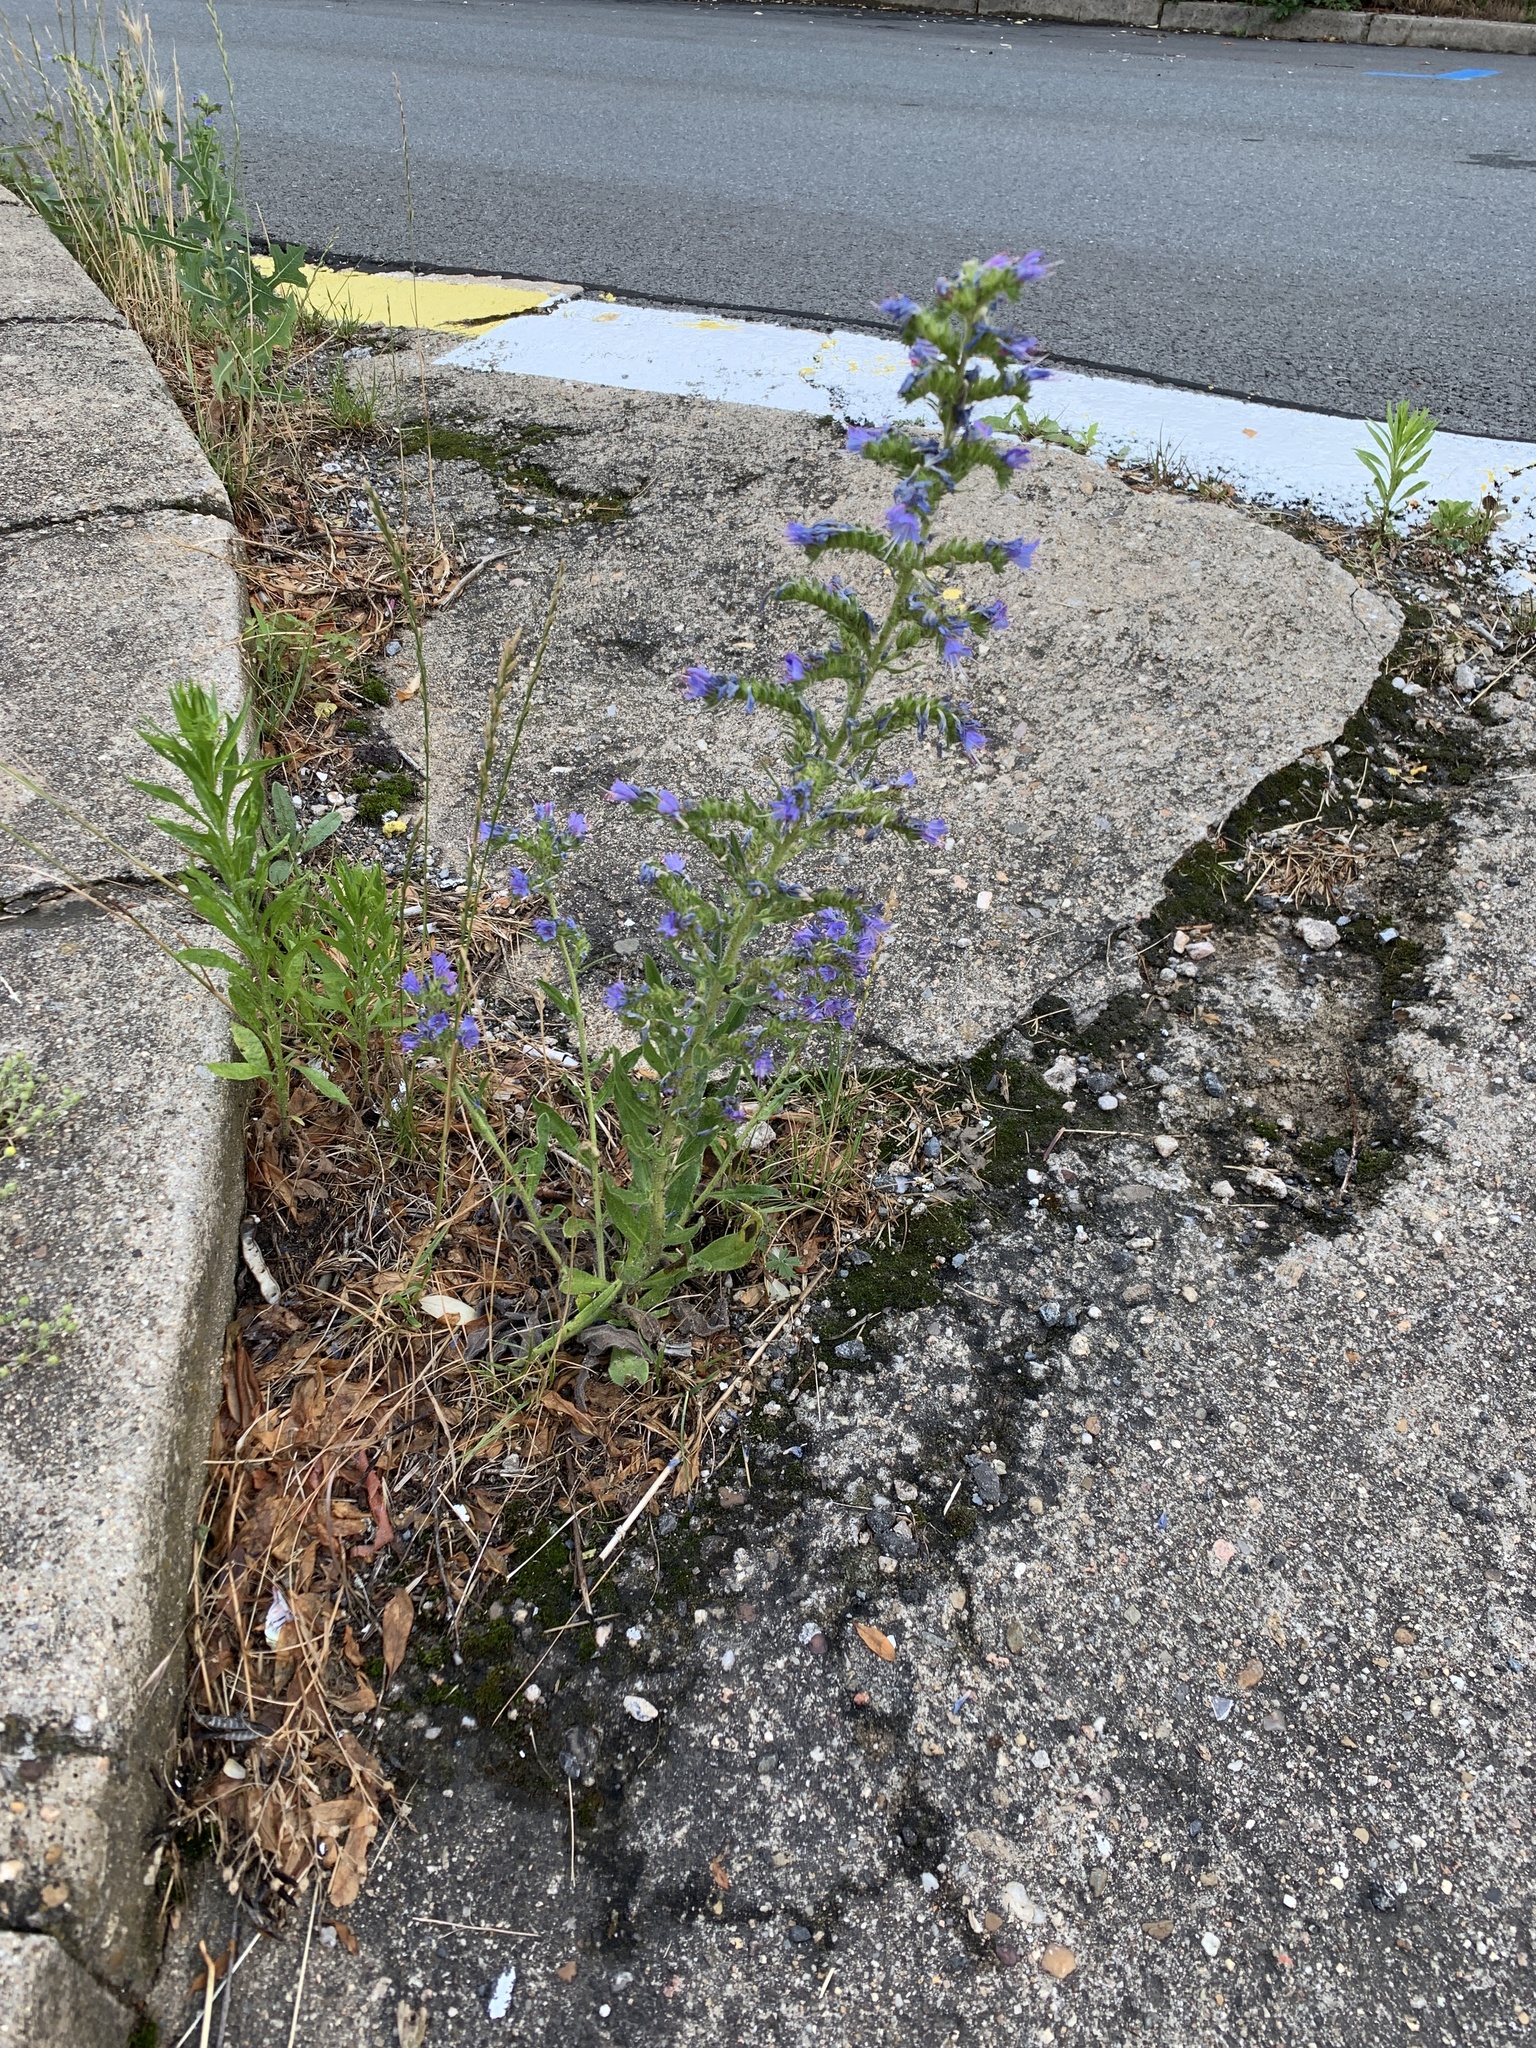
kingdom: Plantae
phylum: Tracheophyta
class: Magnoliopsida
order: Boraginales
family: Boraginaceae
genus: Echium
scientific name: Echium vulgare
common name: Common viper's bugloss
